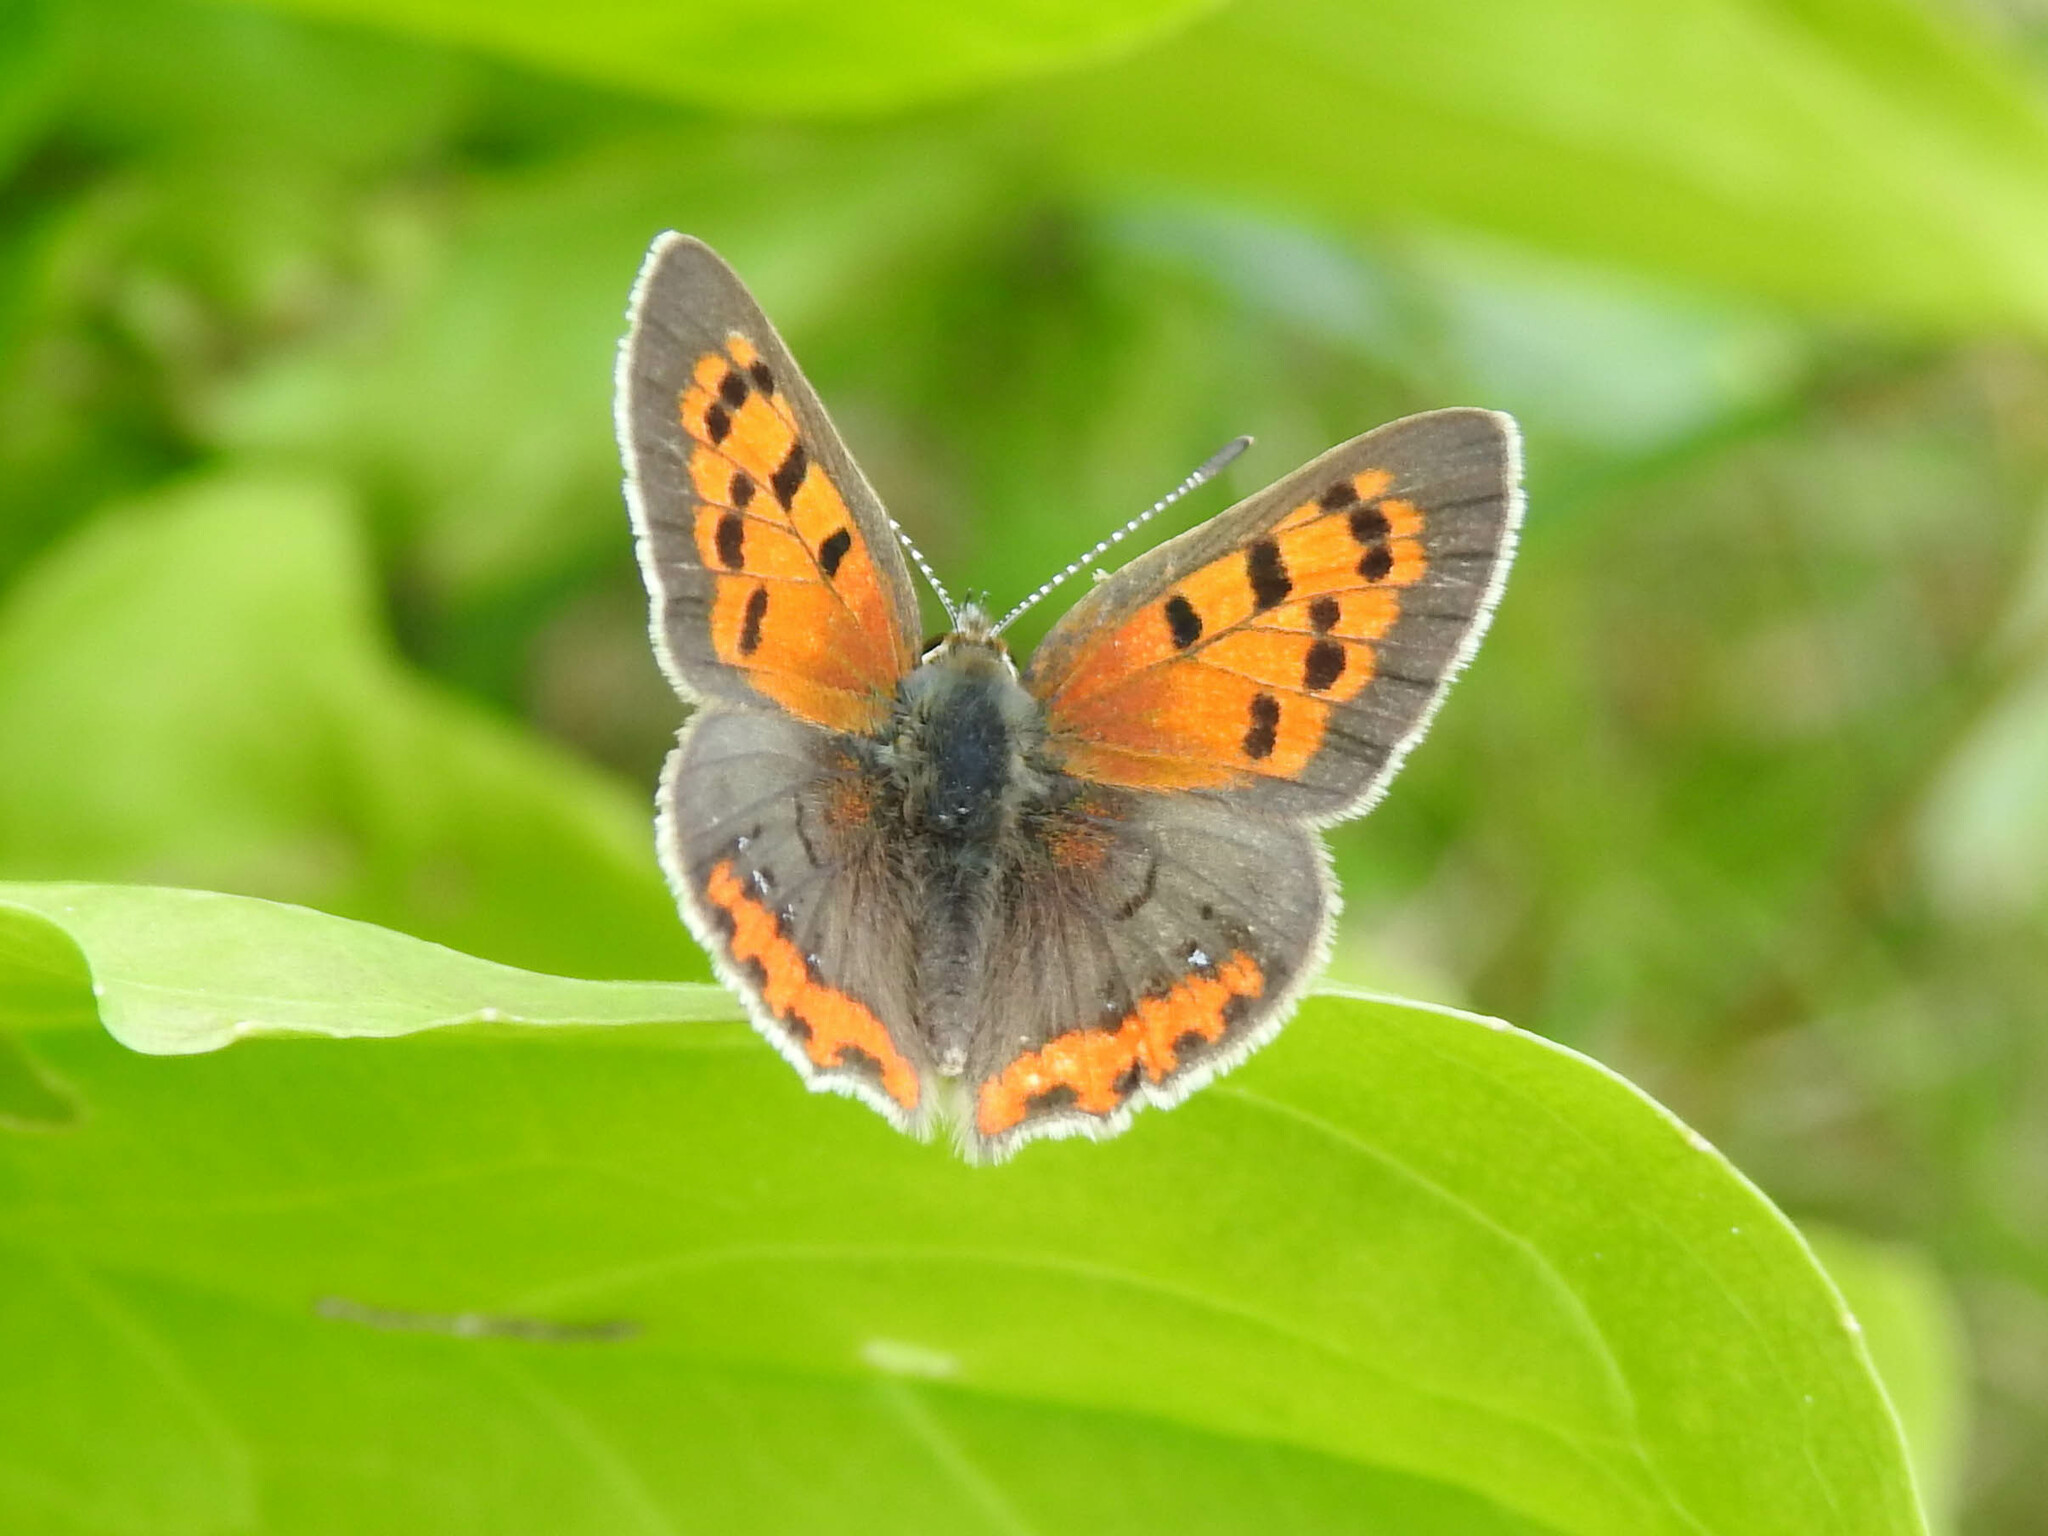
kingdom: Animalia
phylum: Arthropoda
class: Insecta
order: Lepidoptera
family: Lycaenidae
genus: Lycaena
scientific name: Lycaena hypophlaeas
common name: American copper
